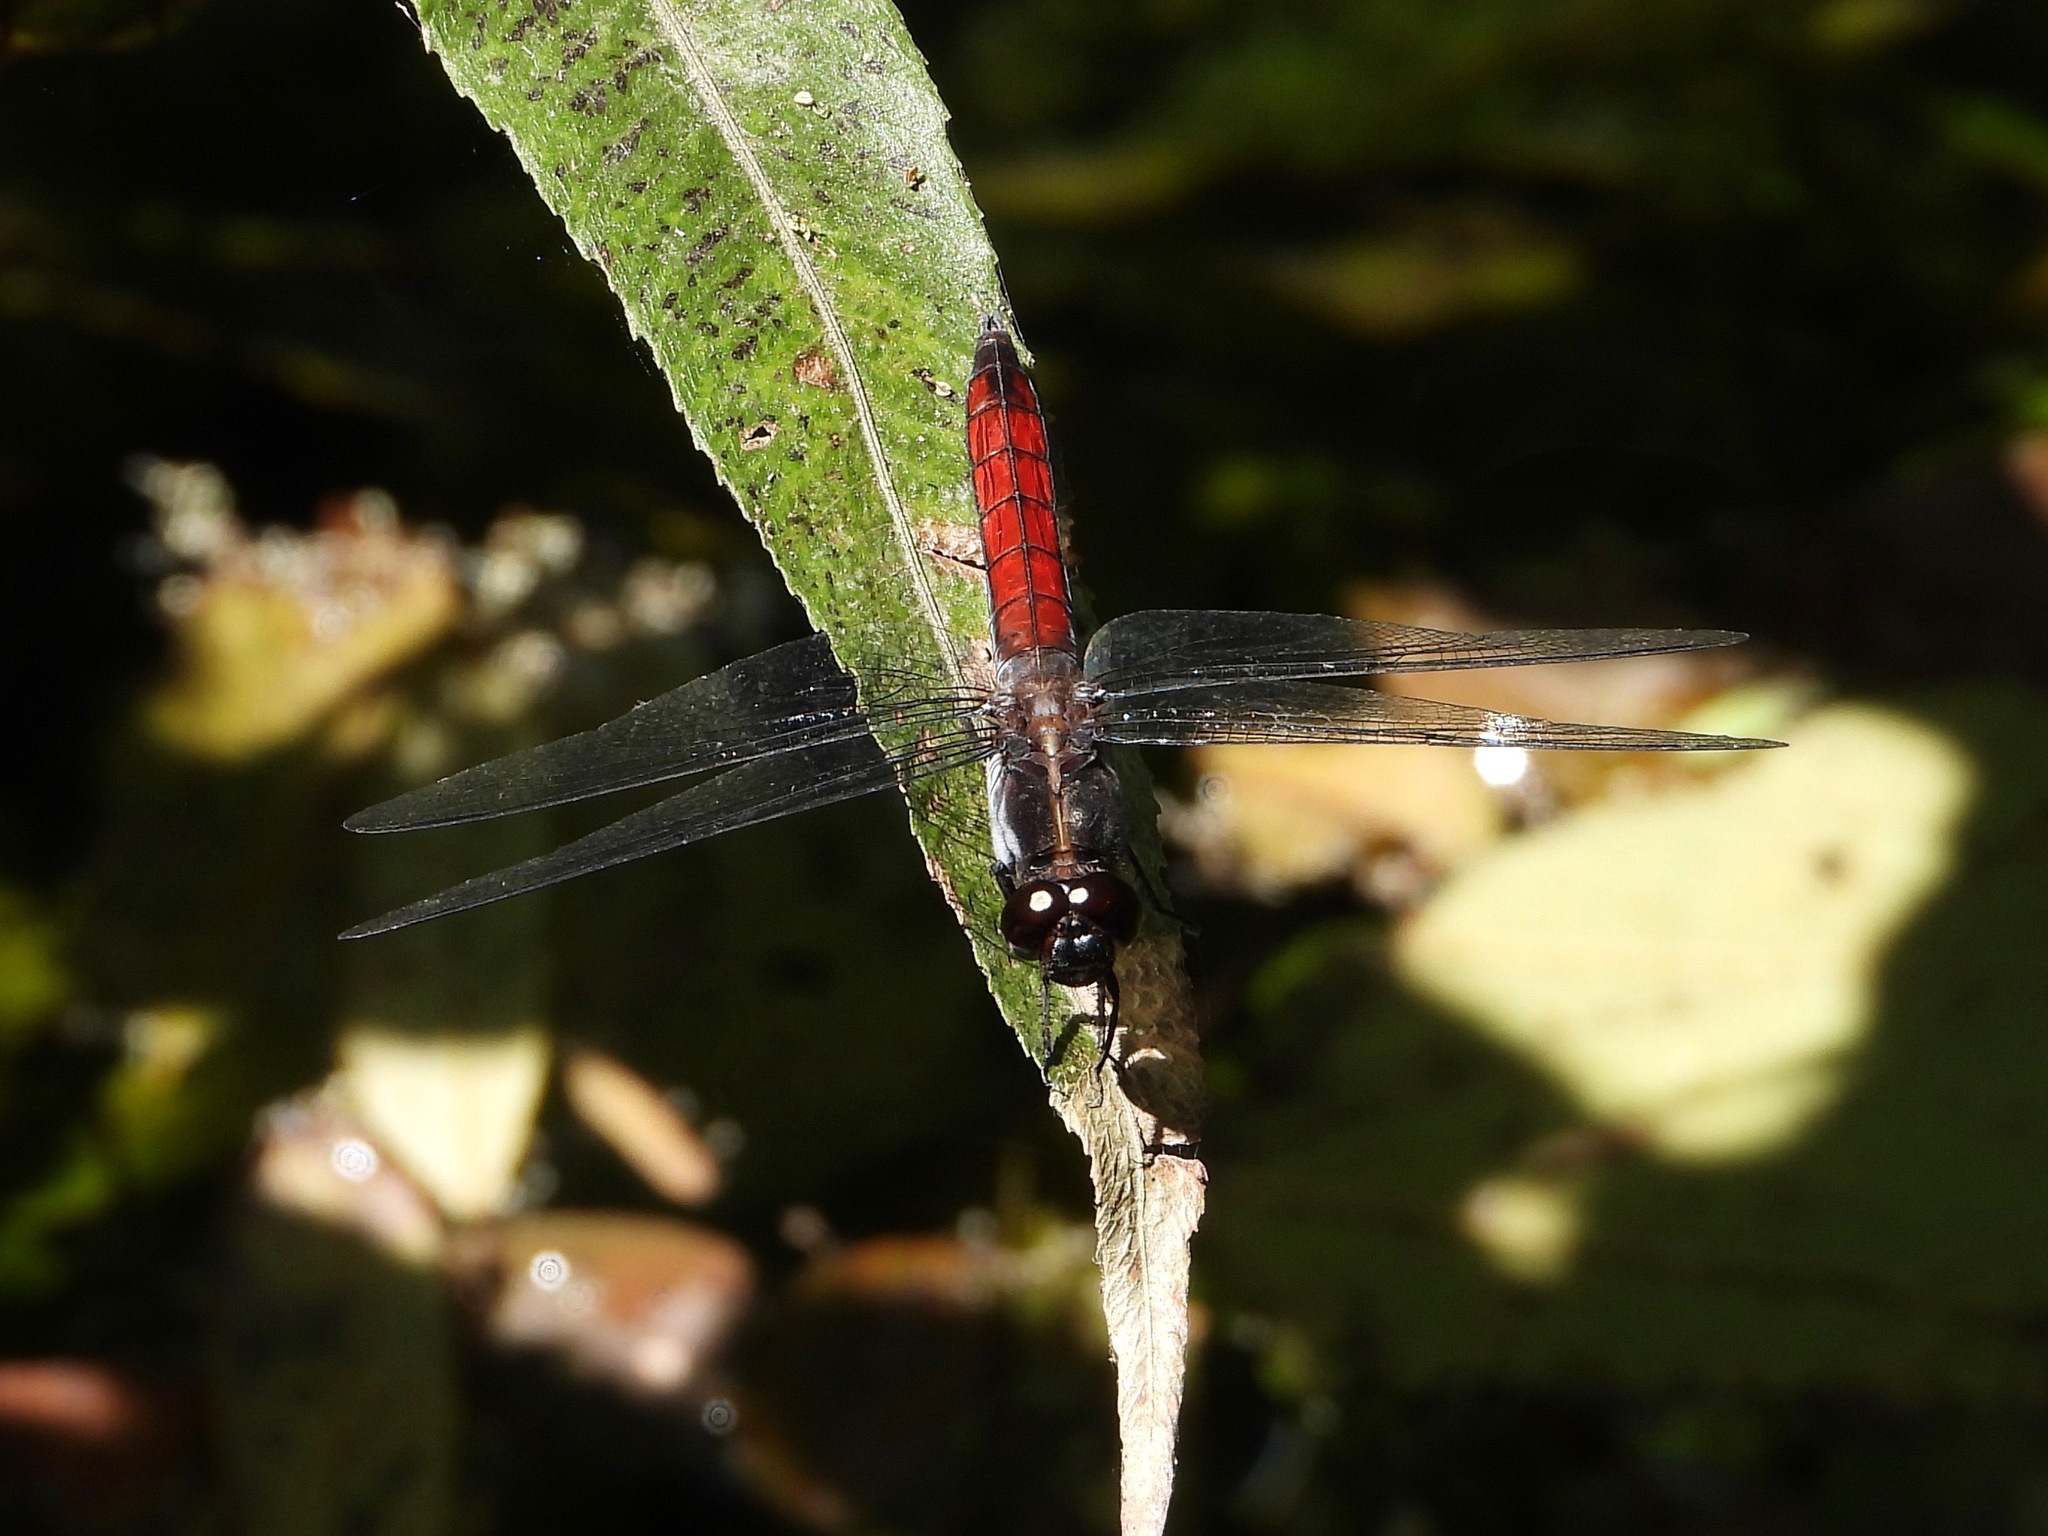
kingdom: Animalia
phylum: Arthropoda
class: Insecta
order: Odonata
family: Libellulidae
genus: Libellula
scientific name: Libellula herculea
